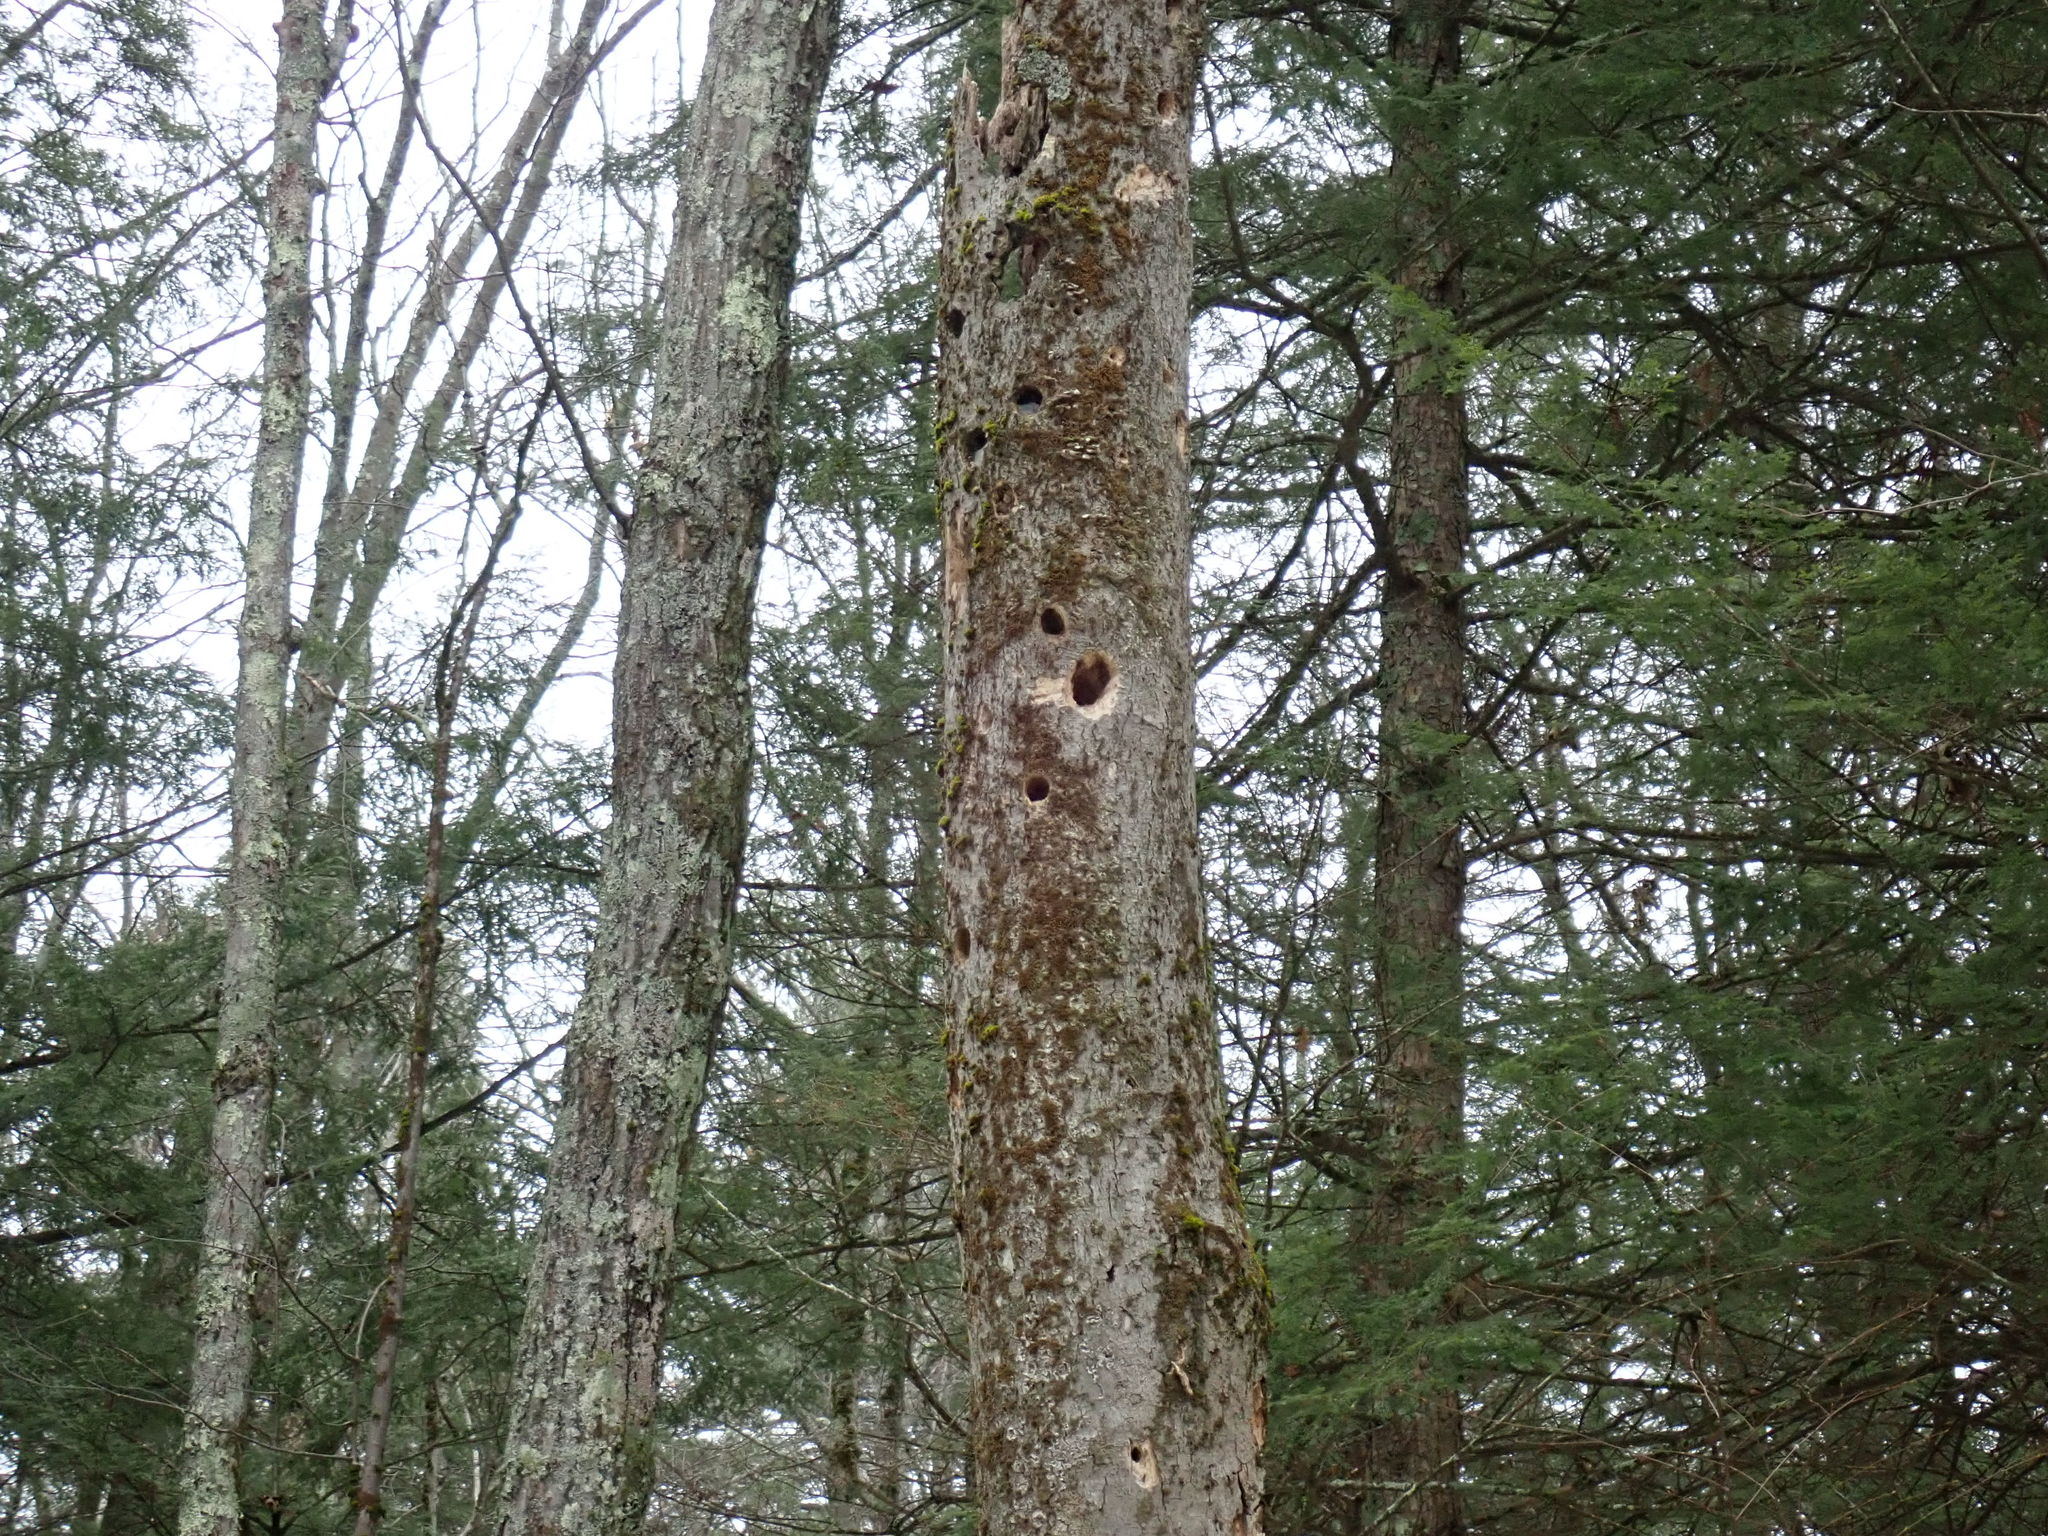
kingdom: Animalia
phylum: Chordata
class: Aves
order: Piciformes
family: Picidae
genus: Dryocopus
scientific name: Dryocopus pileatus
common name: Pileated woodpecker
